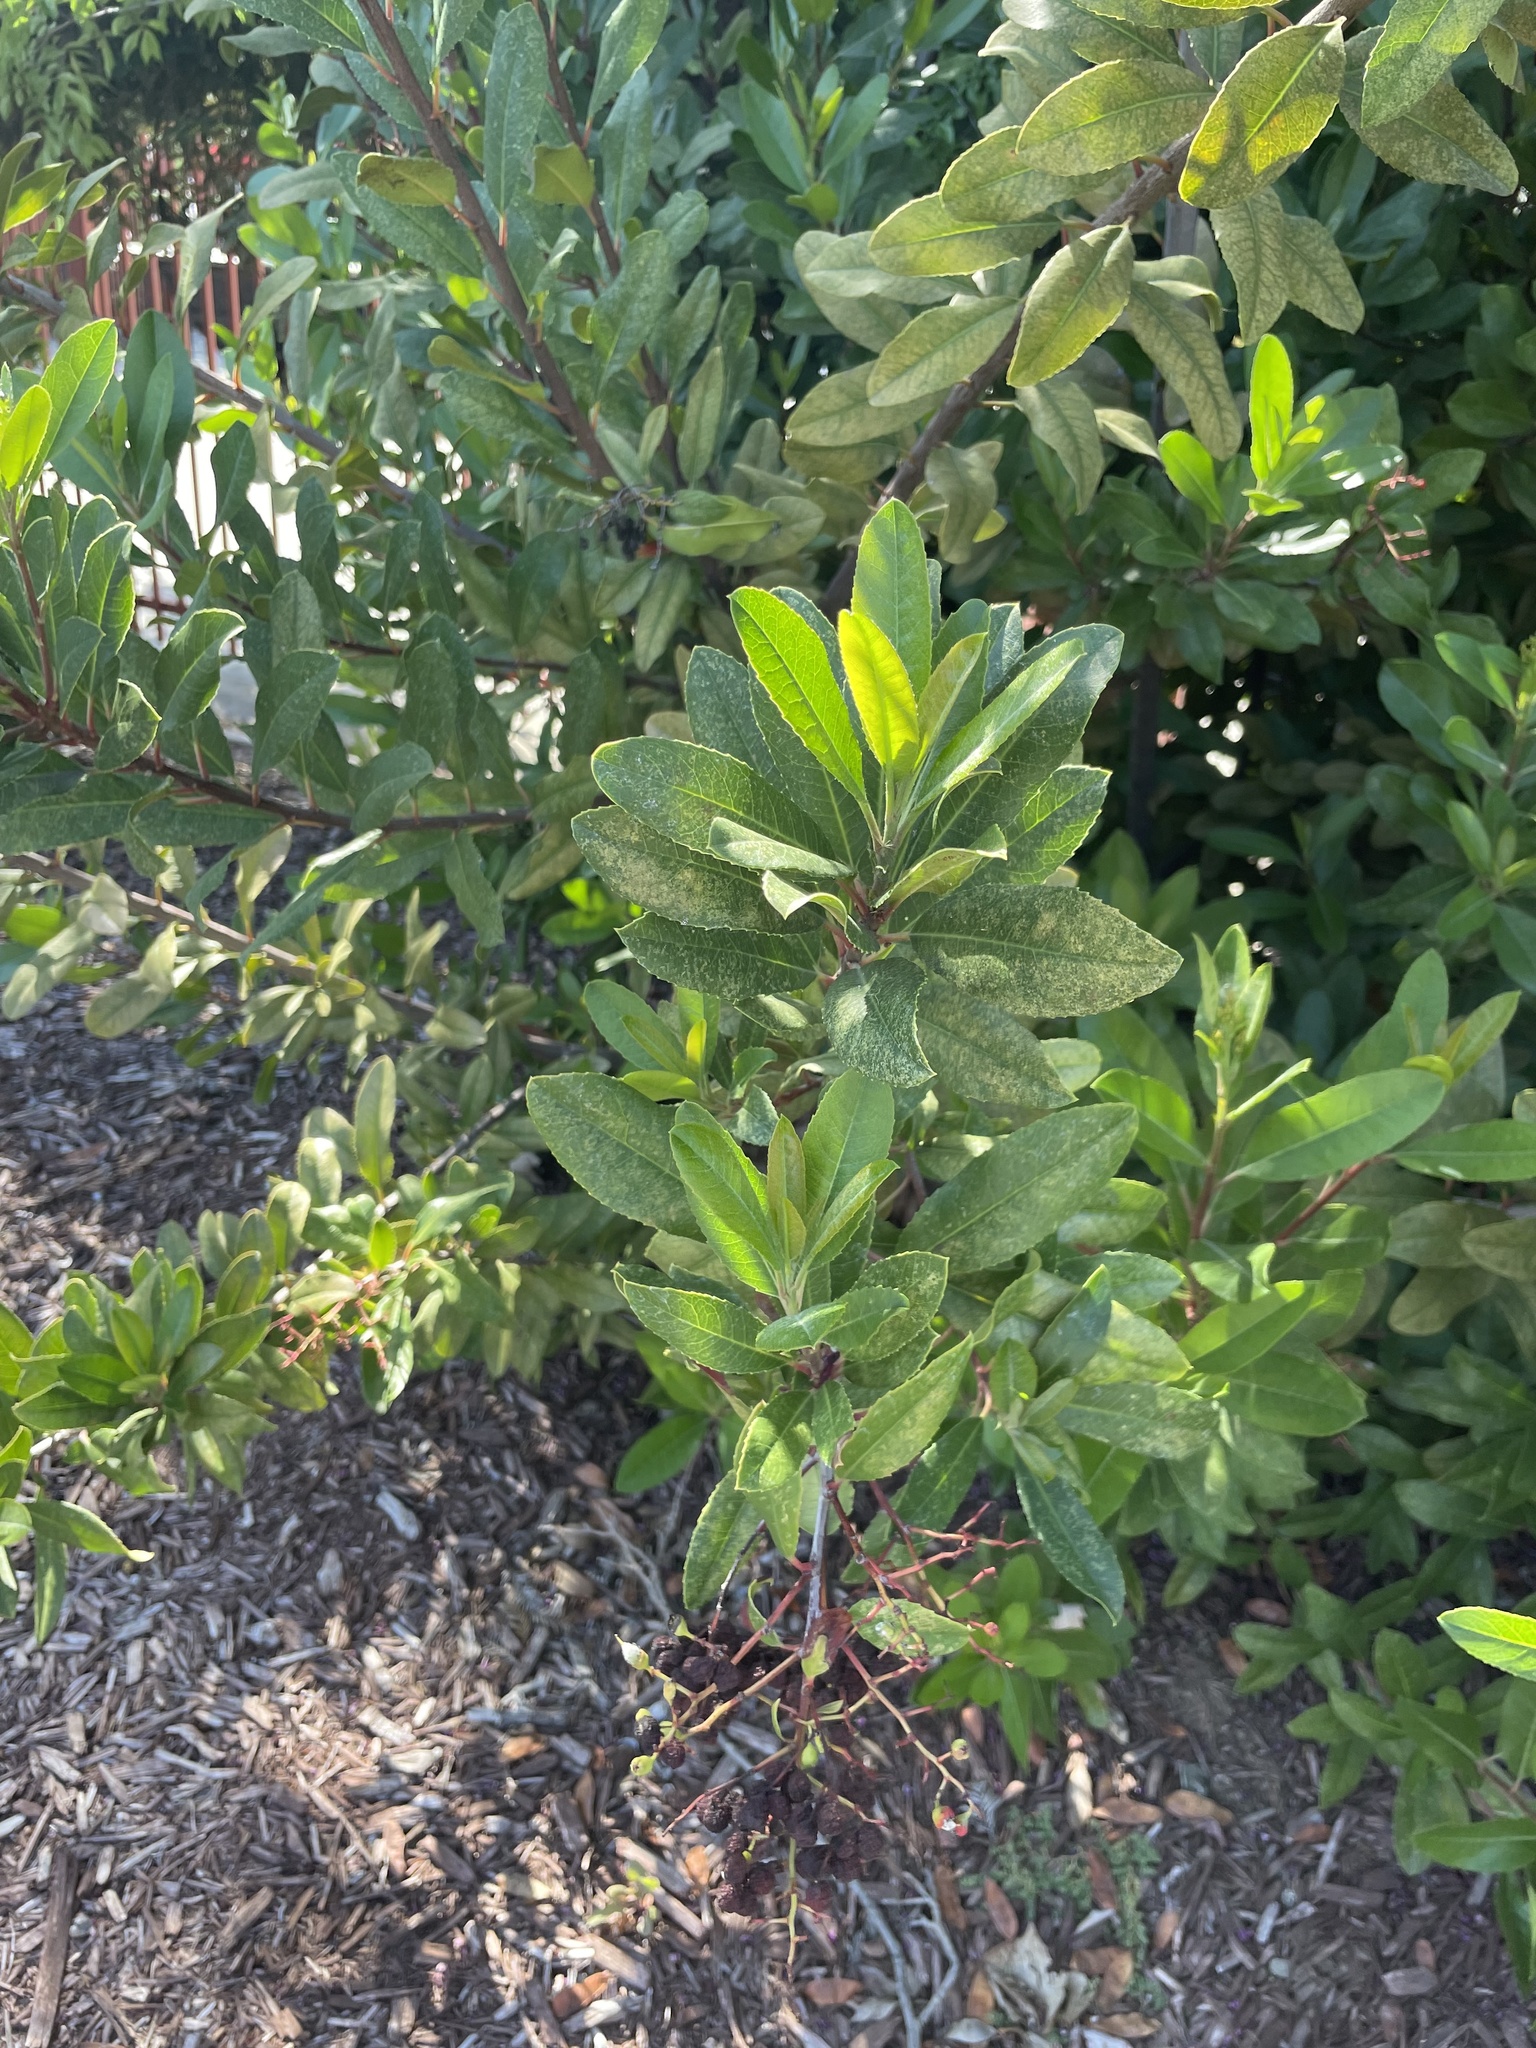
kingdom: Plantae
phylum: Tracheophyta
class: Magnoliopsida
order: Rosales
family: Rosaceae
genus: Heteromeles
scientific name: Heteromeles arbutifolia
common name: California-holly
